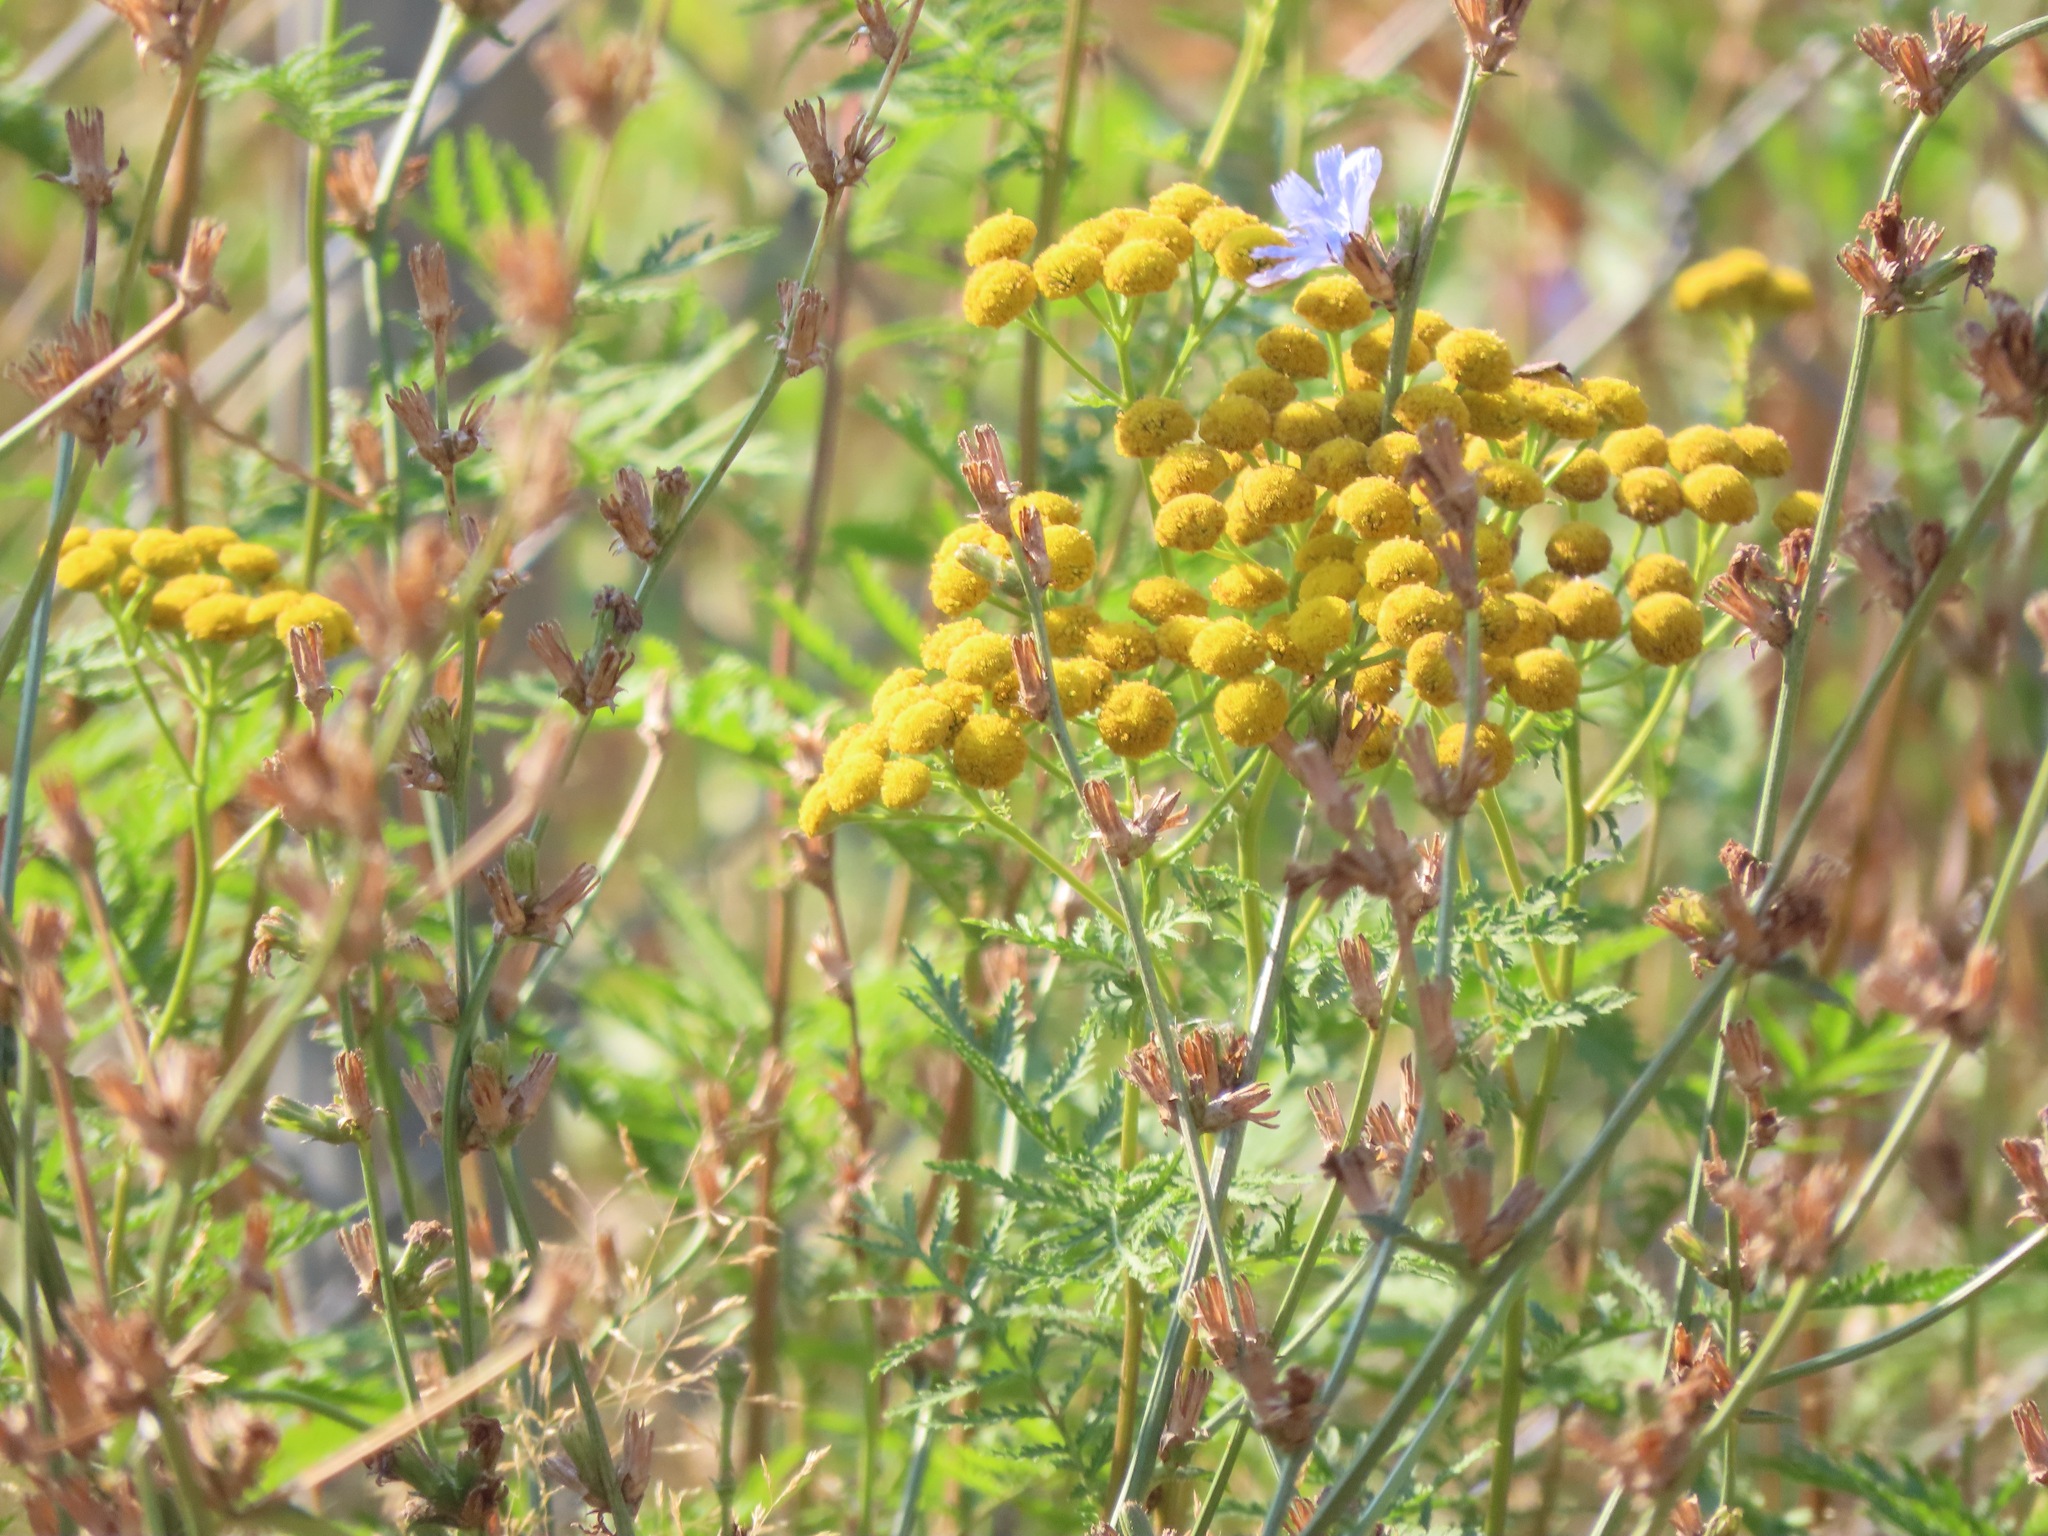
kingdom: Plantae
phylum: Tracheophyta
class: Magnoliopsida
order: Asterales
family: Asteraceae
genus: Tanacetum
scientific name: Tanacetum vulgare
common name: Common tansy
